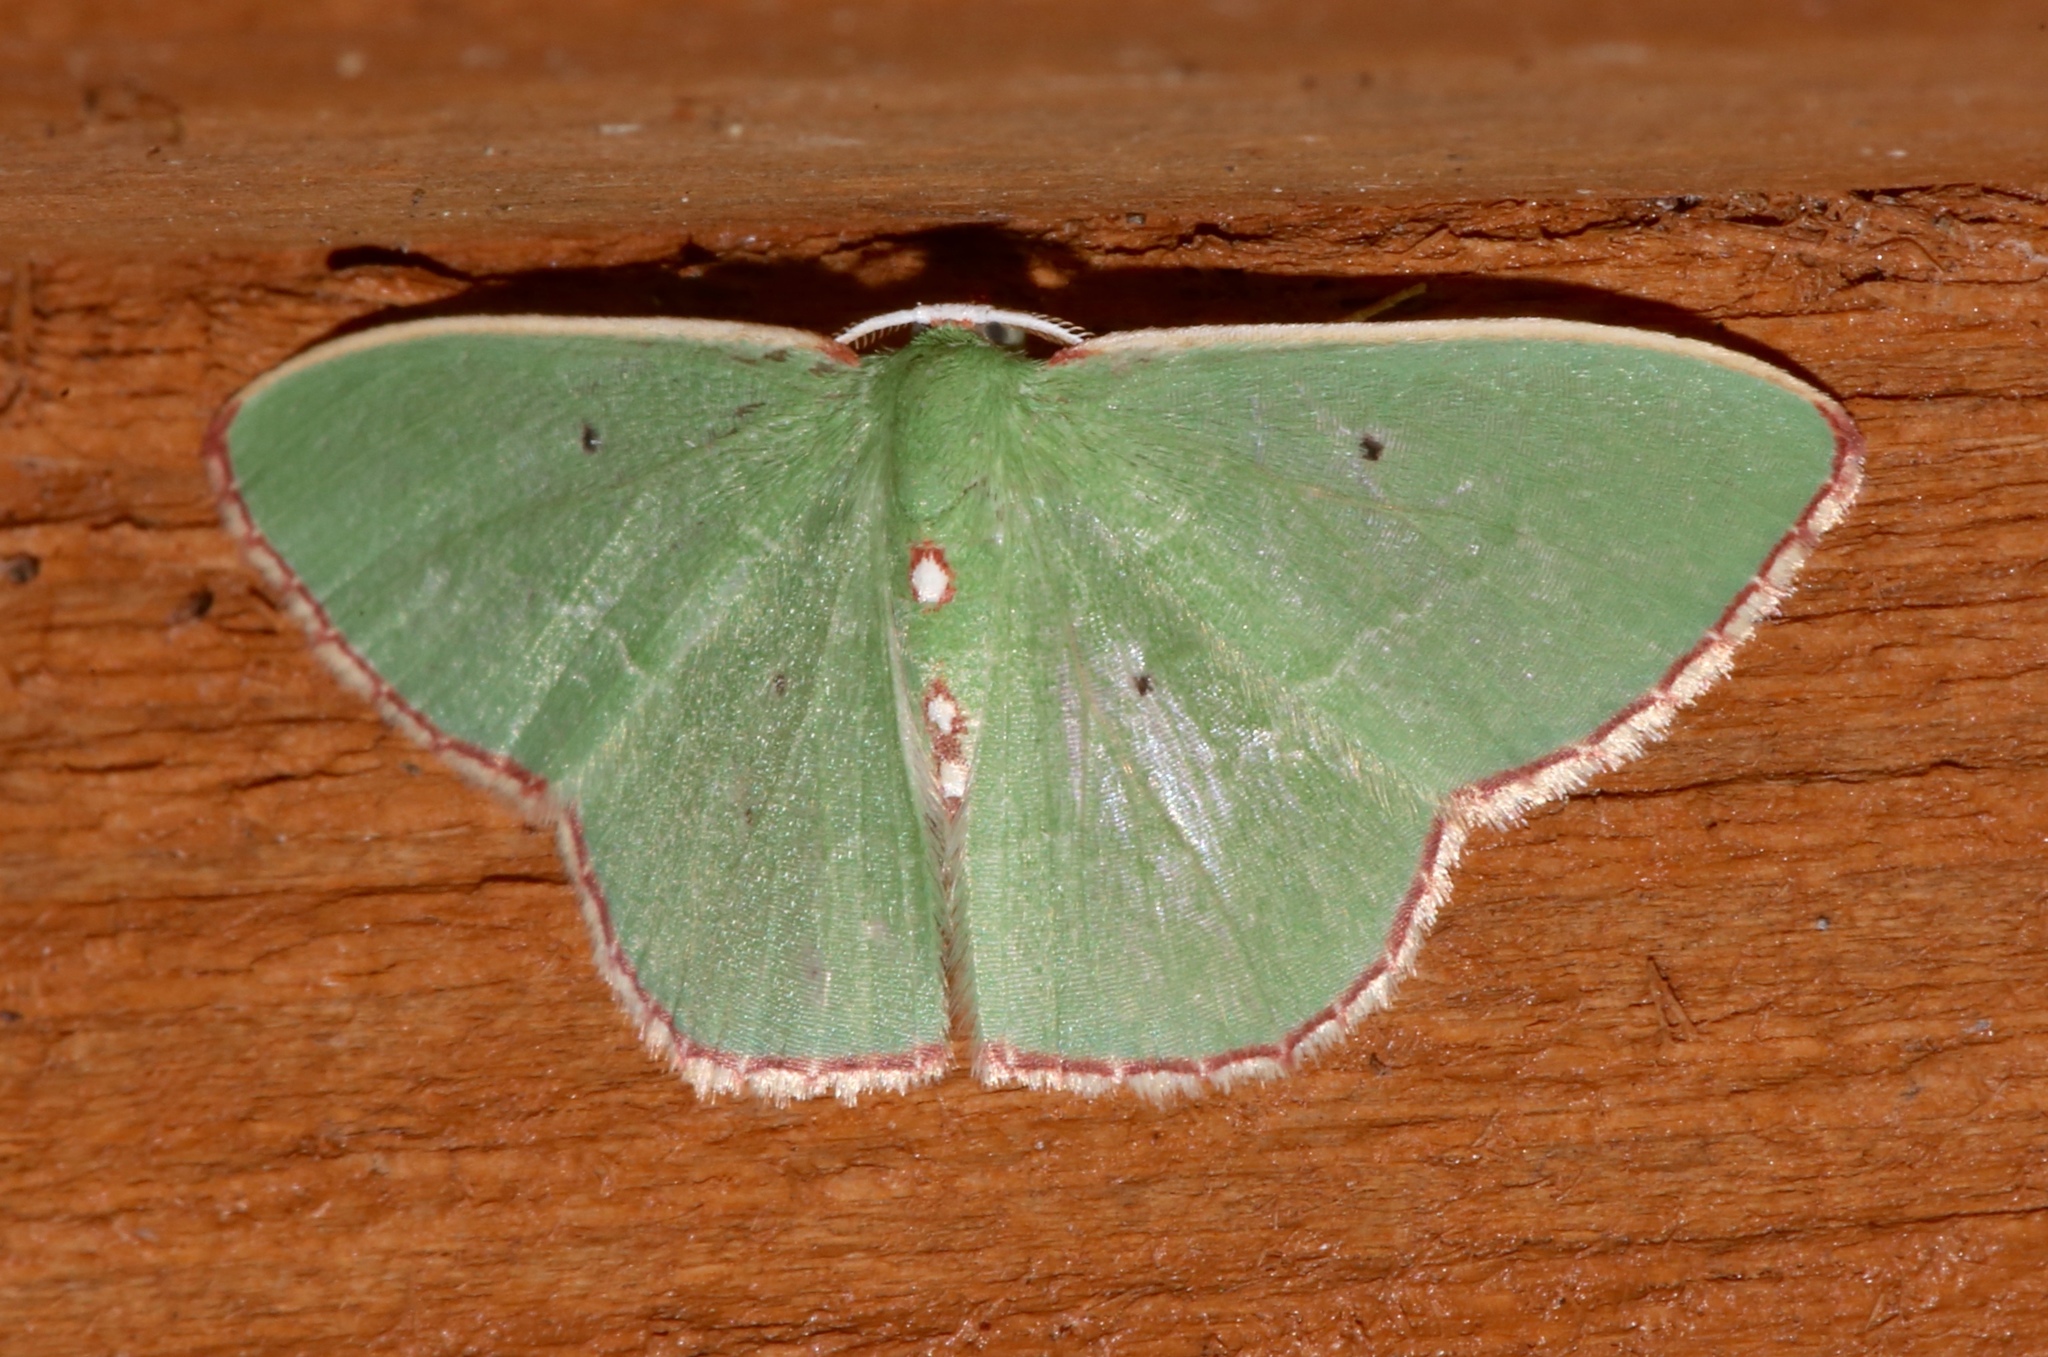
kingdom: Animalia
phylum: Arthropoda
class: Insecta
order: Lepidoptera
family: Geometridae
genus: Nemoria
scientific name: Nemoria lixaria
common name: Red-bordered emerald
